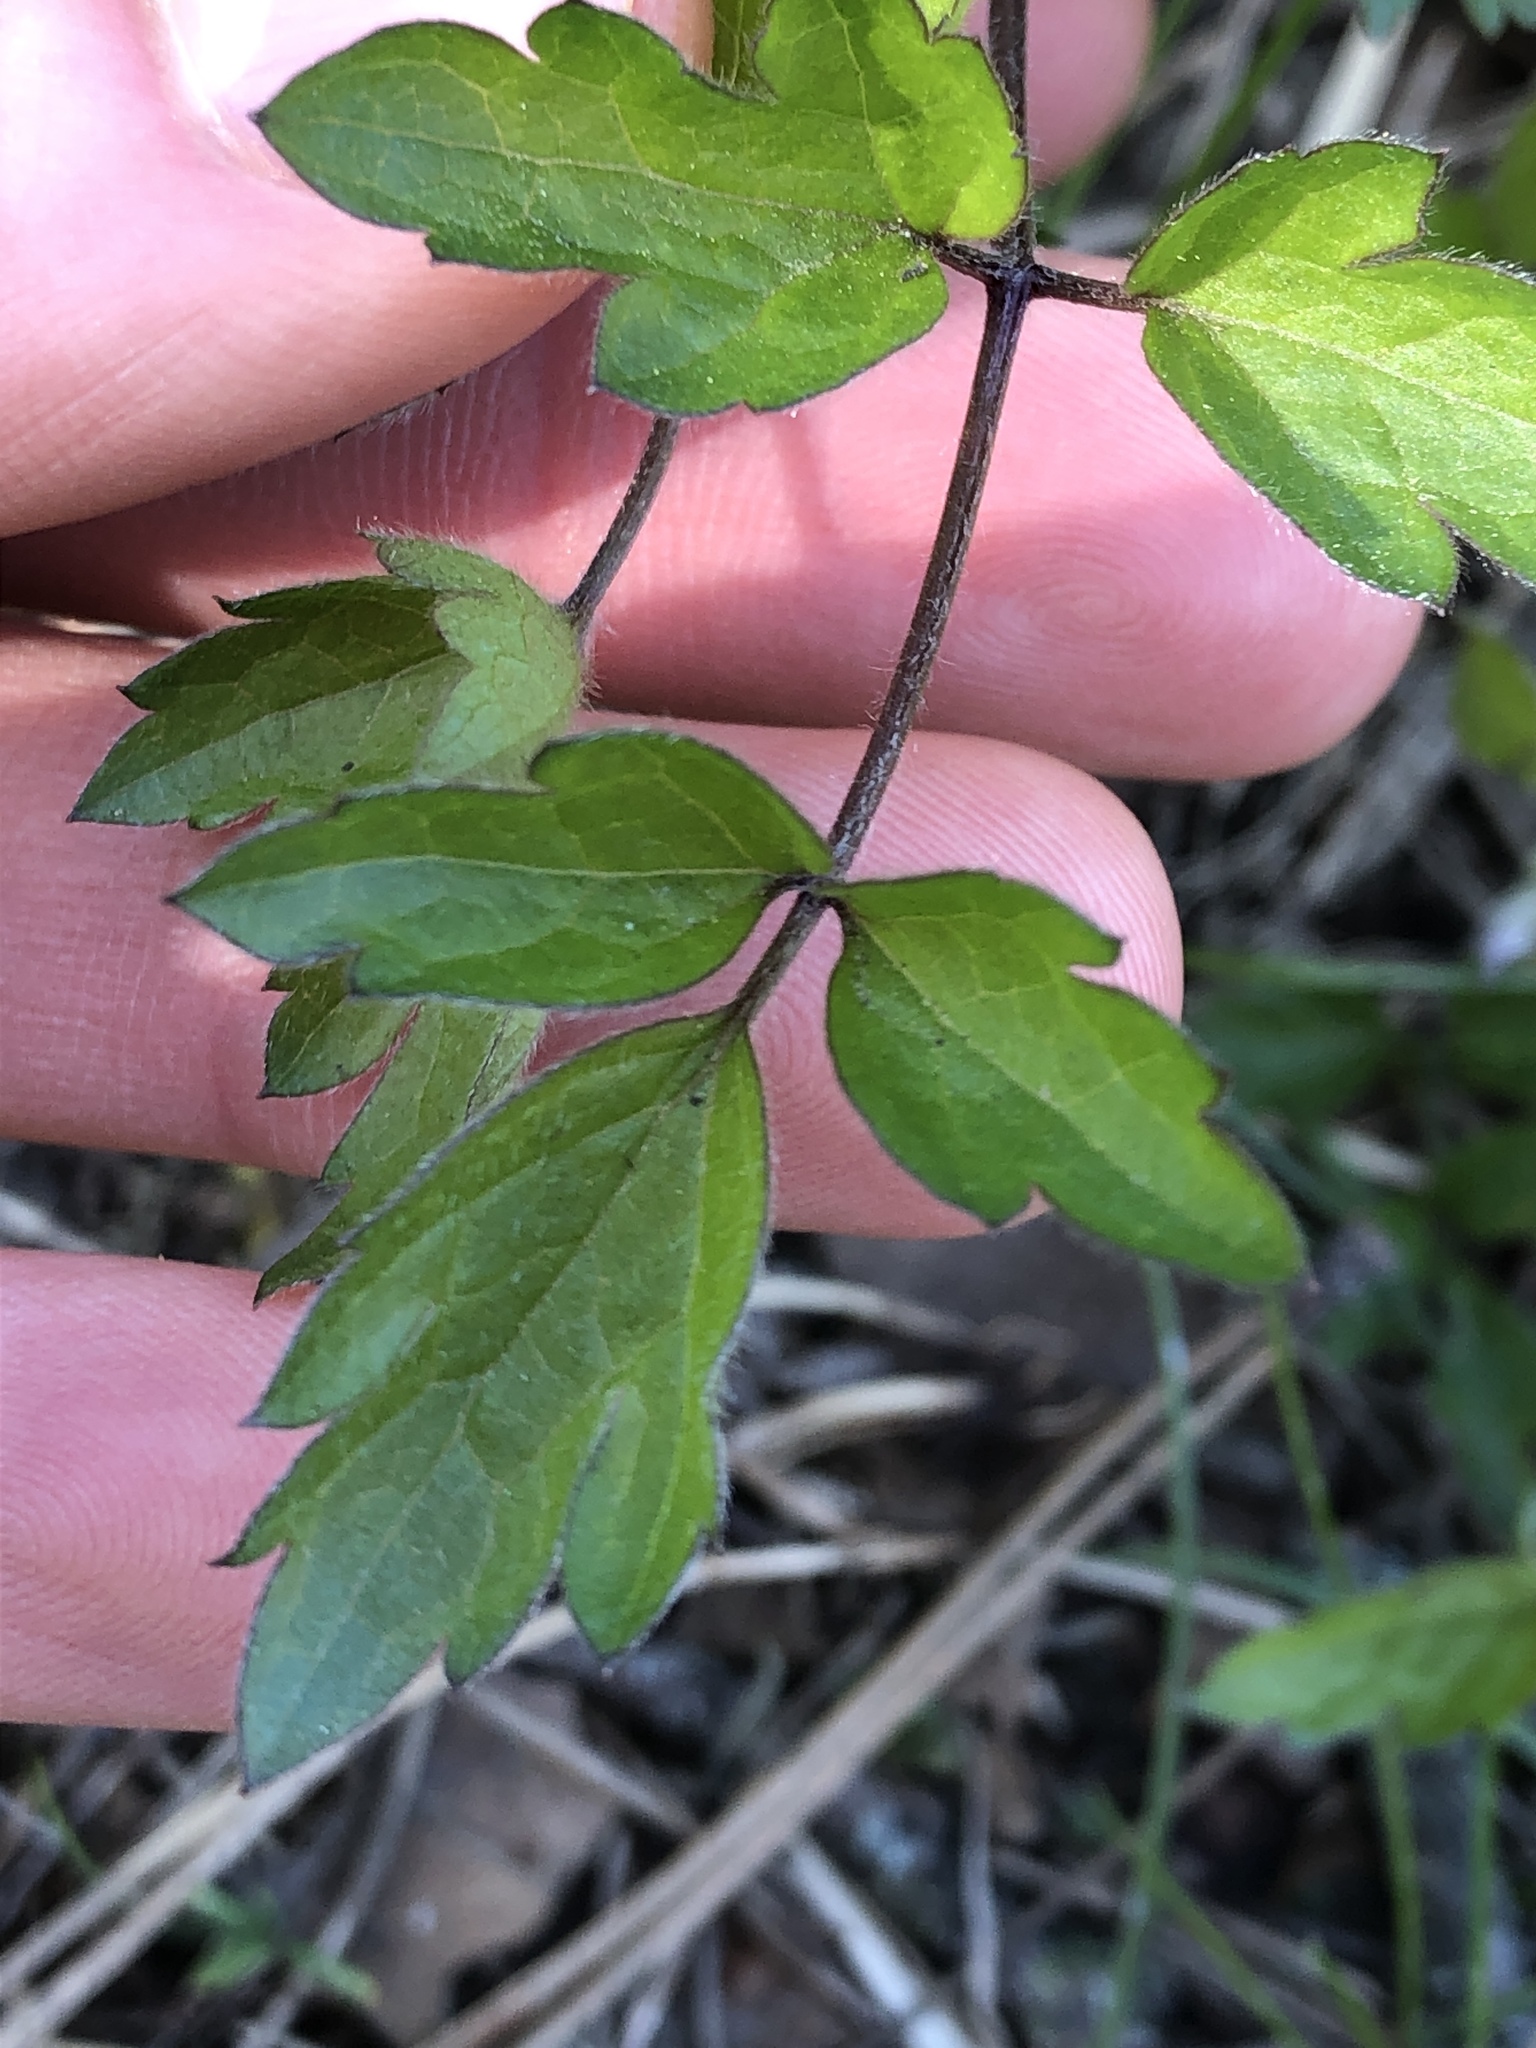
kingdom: Plantae
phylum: Tracheophyta
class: Magnoliopsida
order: Ranunculales
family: Ranunculaceae
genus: Clematis
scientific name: Clematis vitalba
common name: Evergreen clematis
